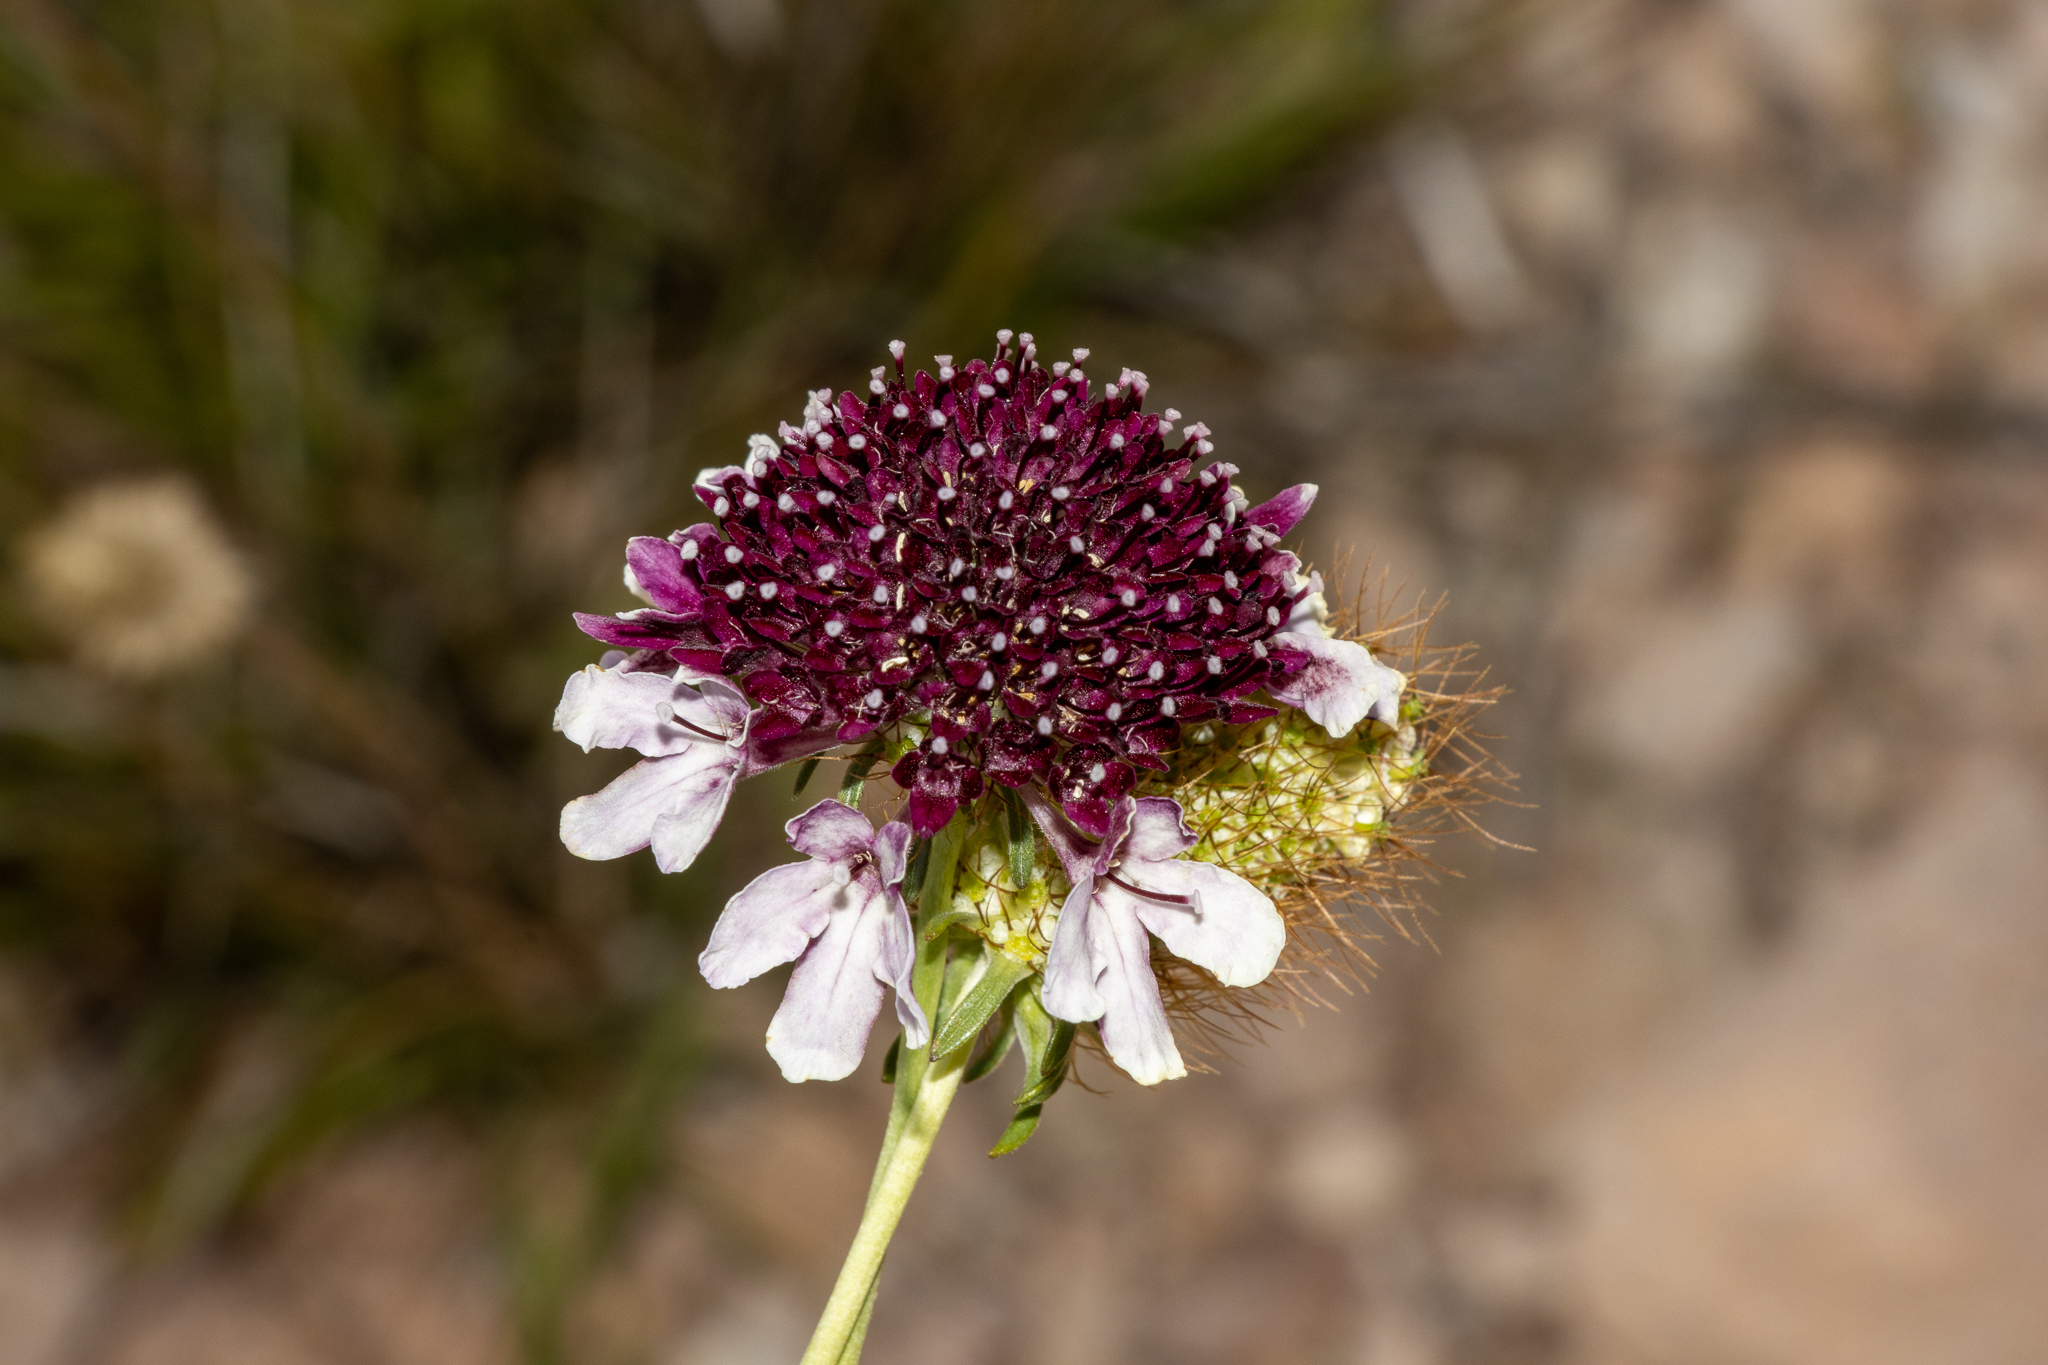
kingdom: Plantae
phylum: Tracheophyta
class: Magnoliopsida
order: Dipsacales
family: Caprifoliaceae
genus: Sixalix
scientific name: Sixalix atropurpurea
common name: Sweet scabious
